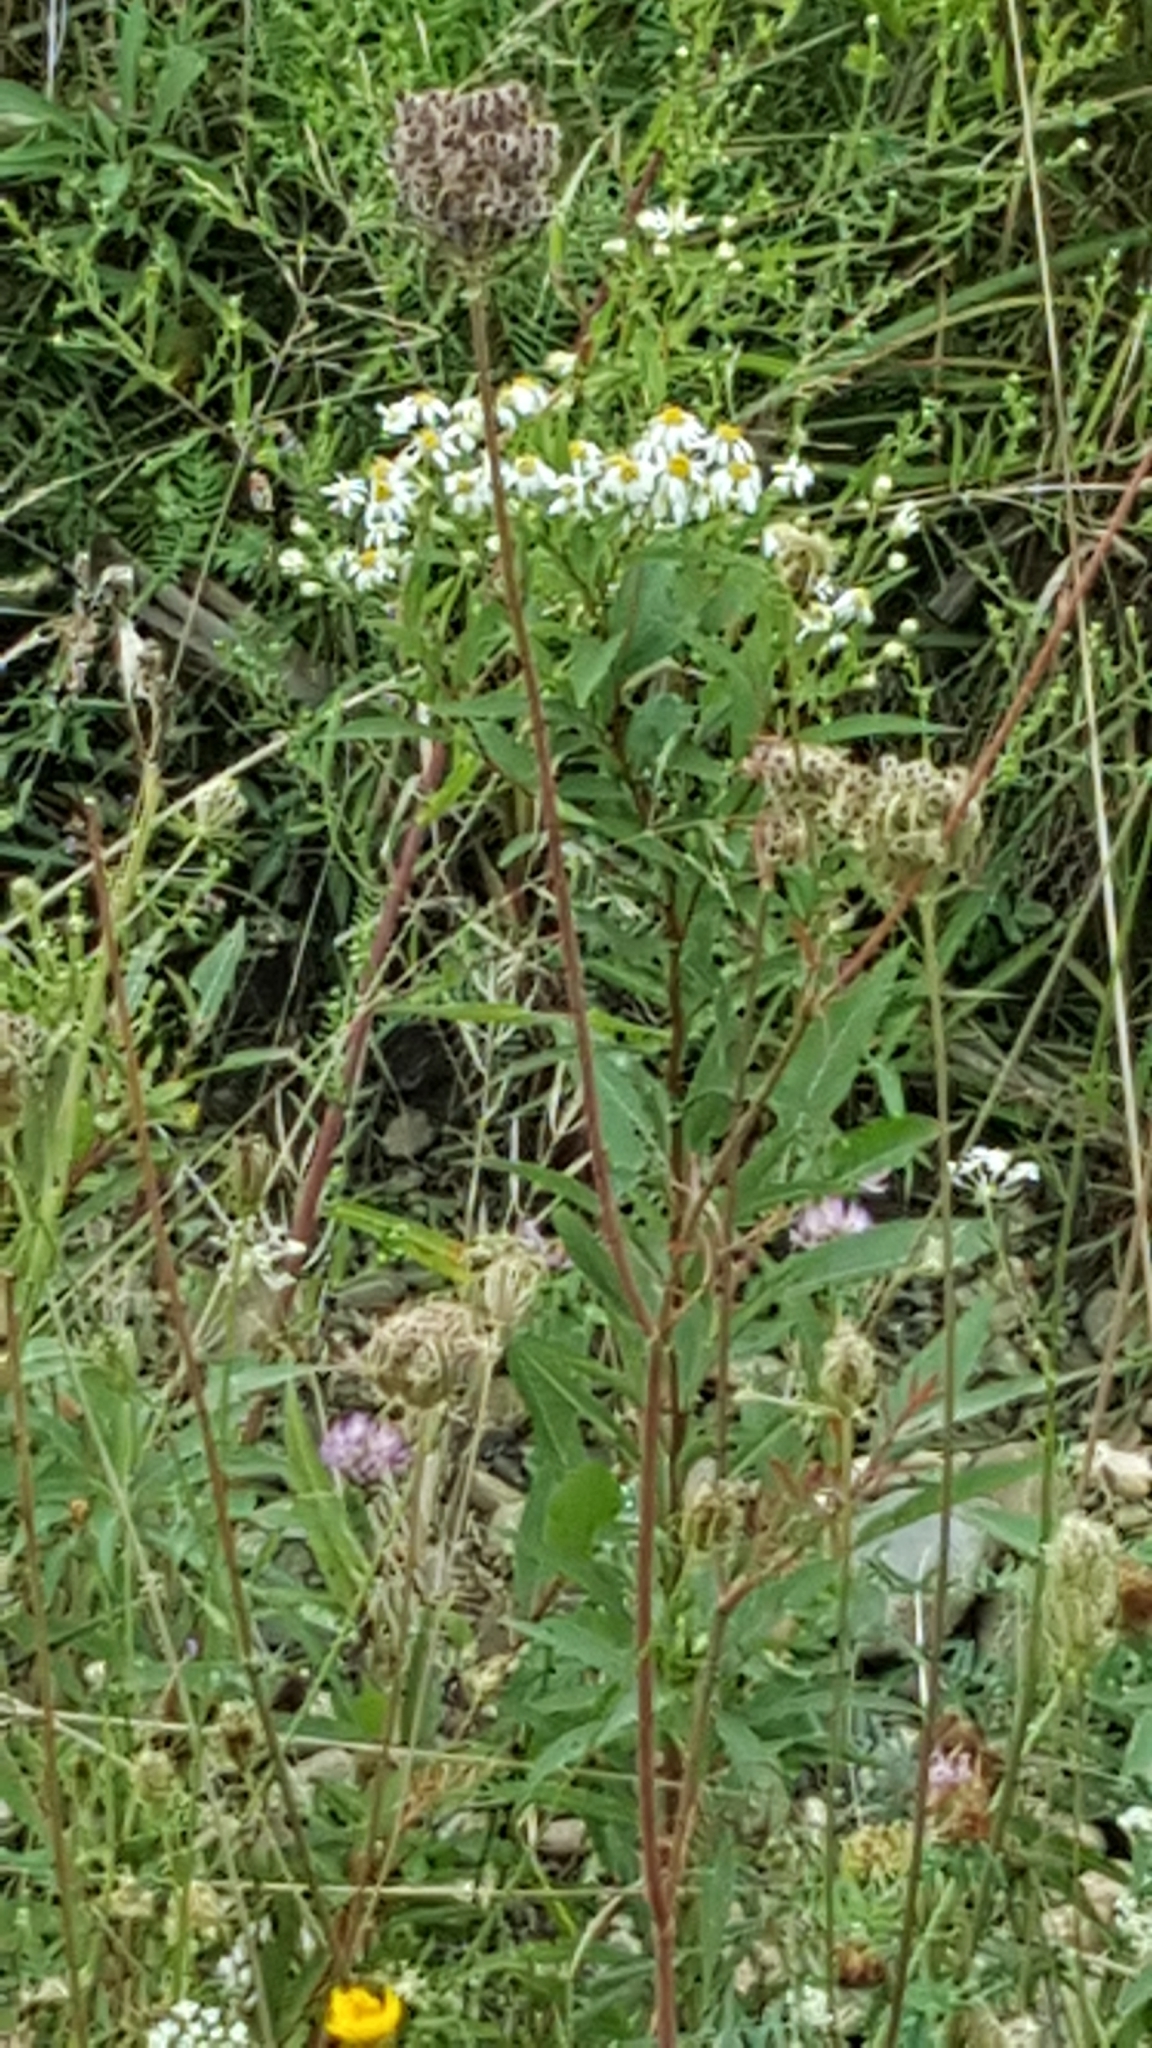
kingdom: Plantae
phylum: Tracheophyta
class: Magnoliopsida
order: Asterales
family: Asteraceae
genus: Doellingeria
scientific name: Doellingeria umbellata
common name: Flat-top white aster
